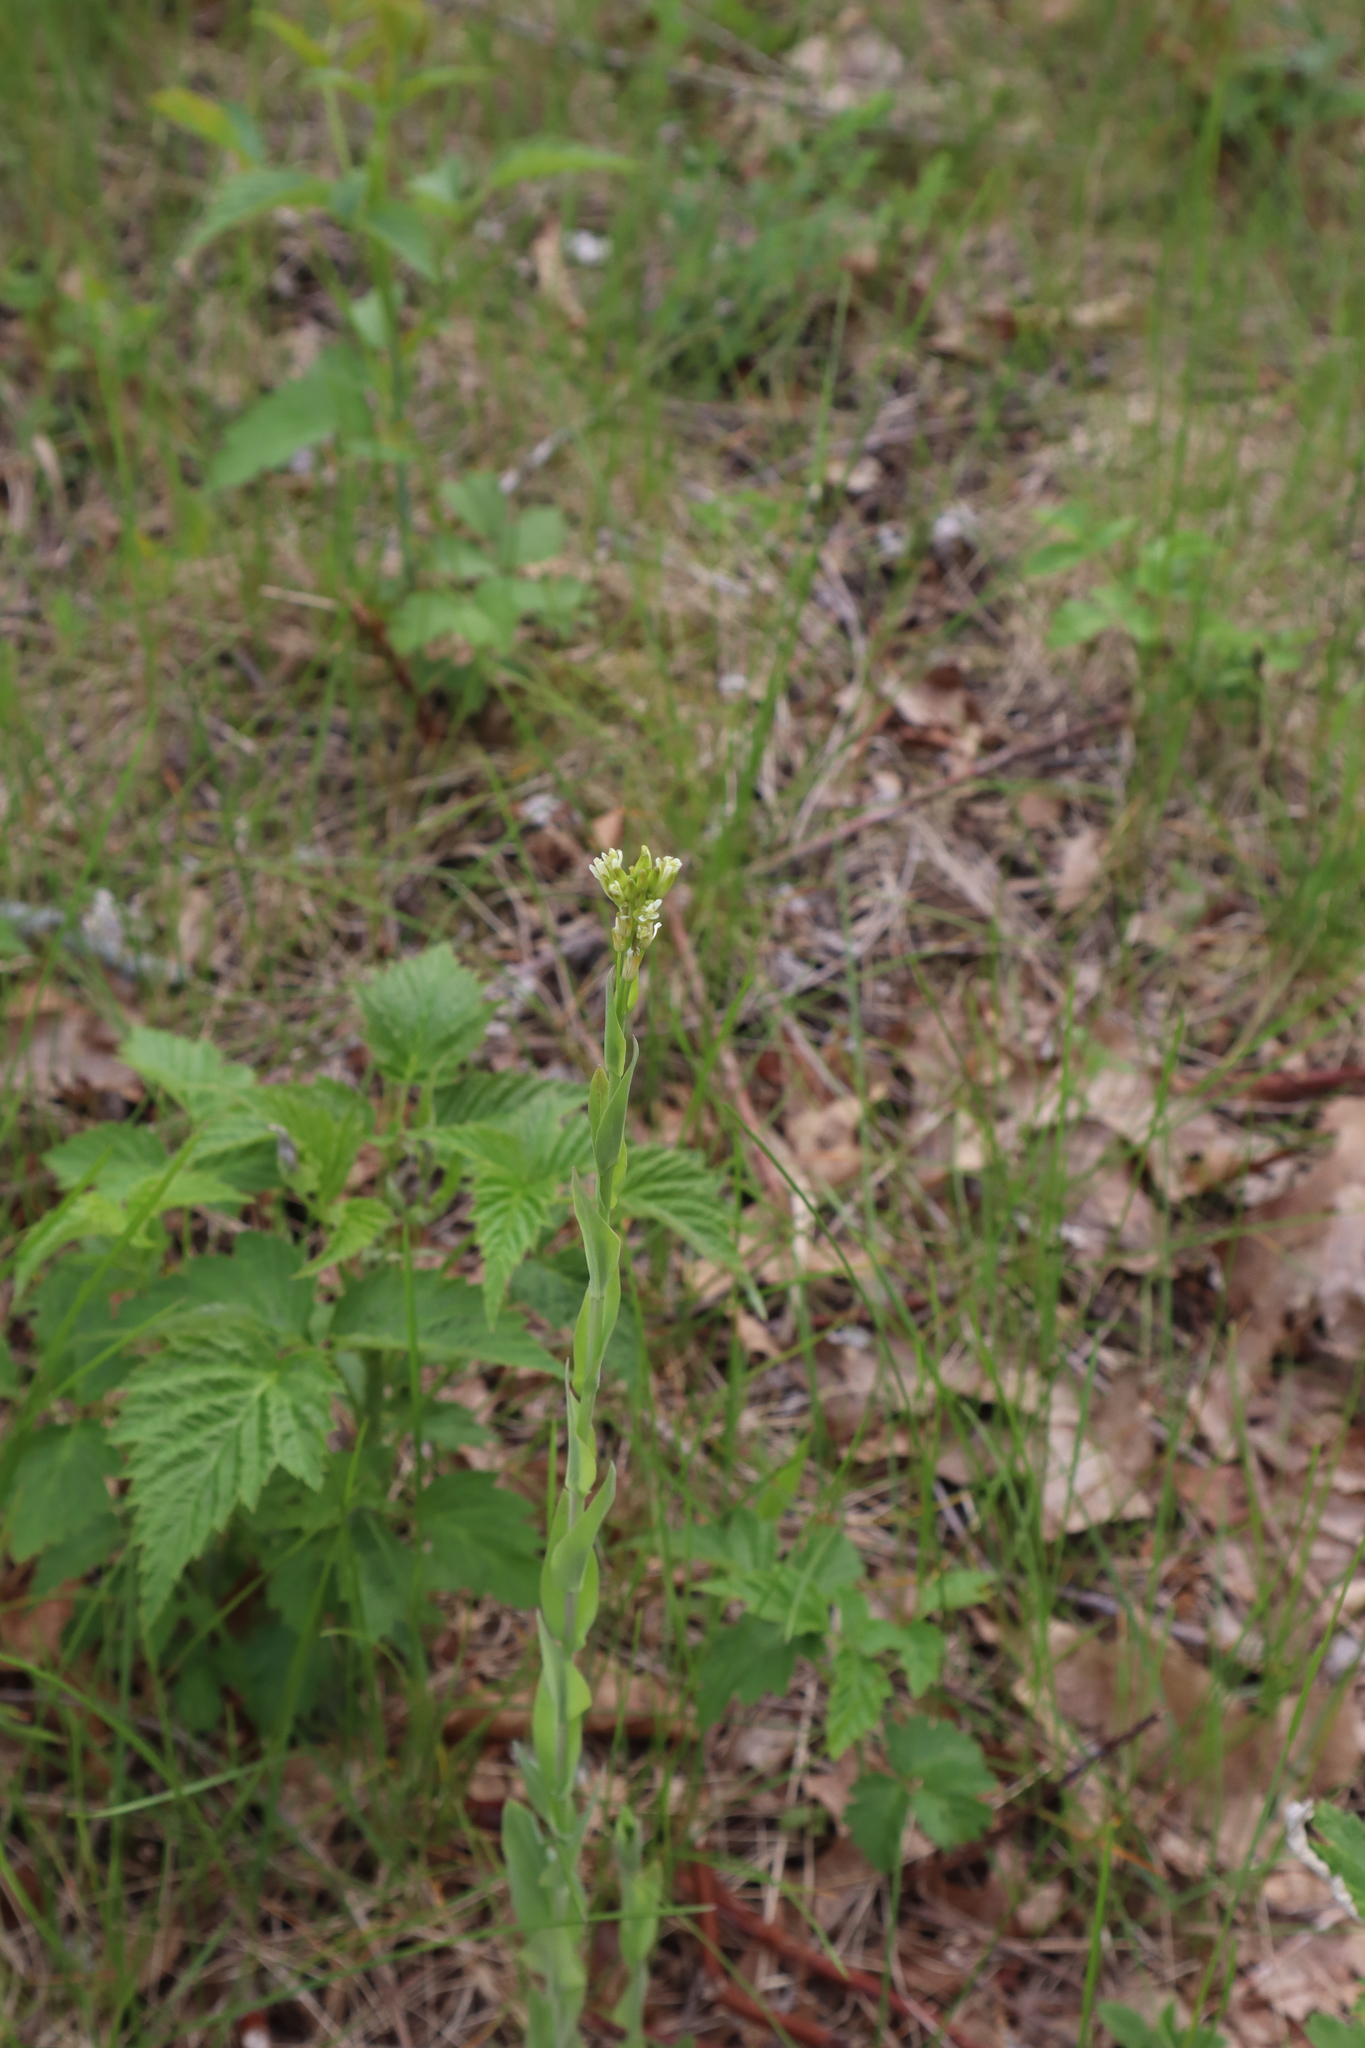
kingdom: Plantae
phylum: Tracheophyta
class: Magnoliopsida
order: Brassicales
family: Brassicaceae
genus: Turritis
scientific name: Turritis glabra
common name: Tower rockcress
